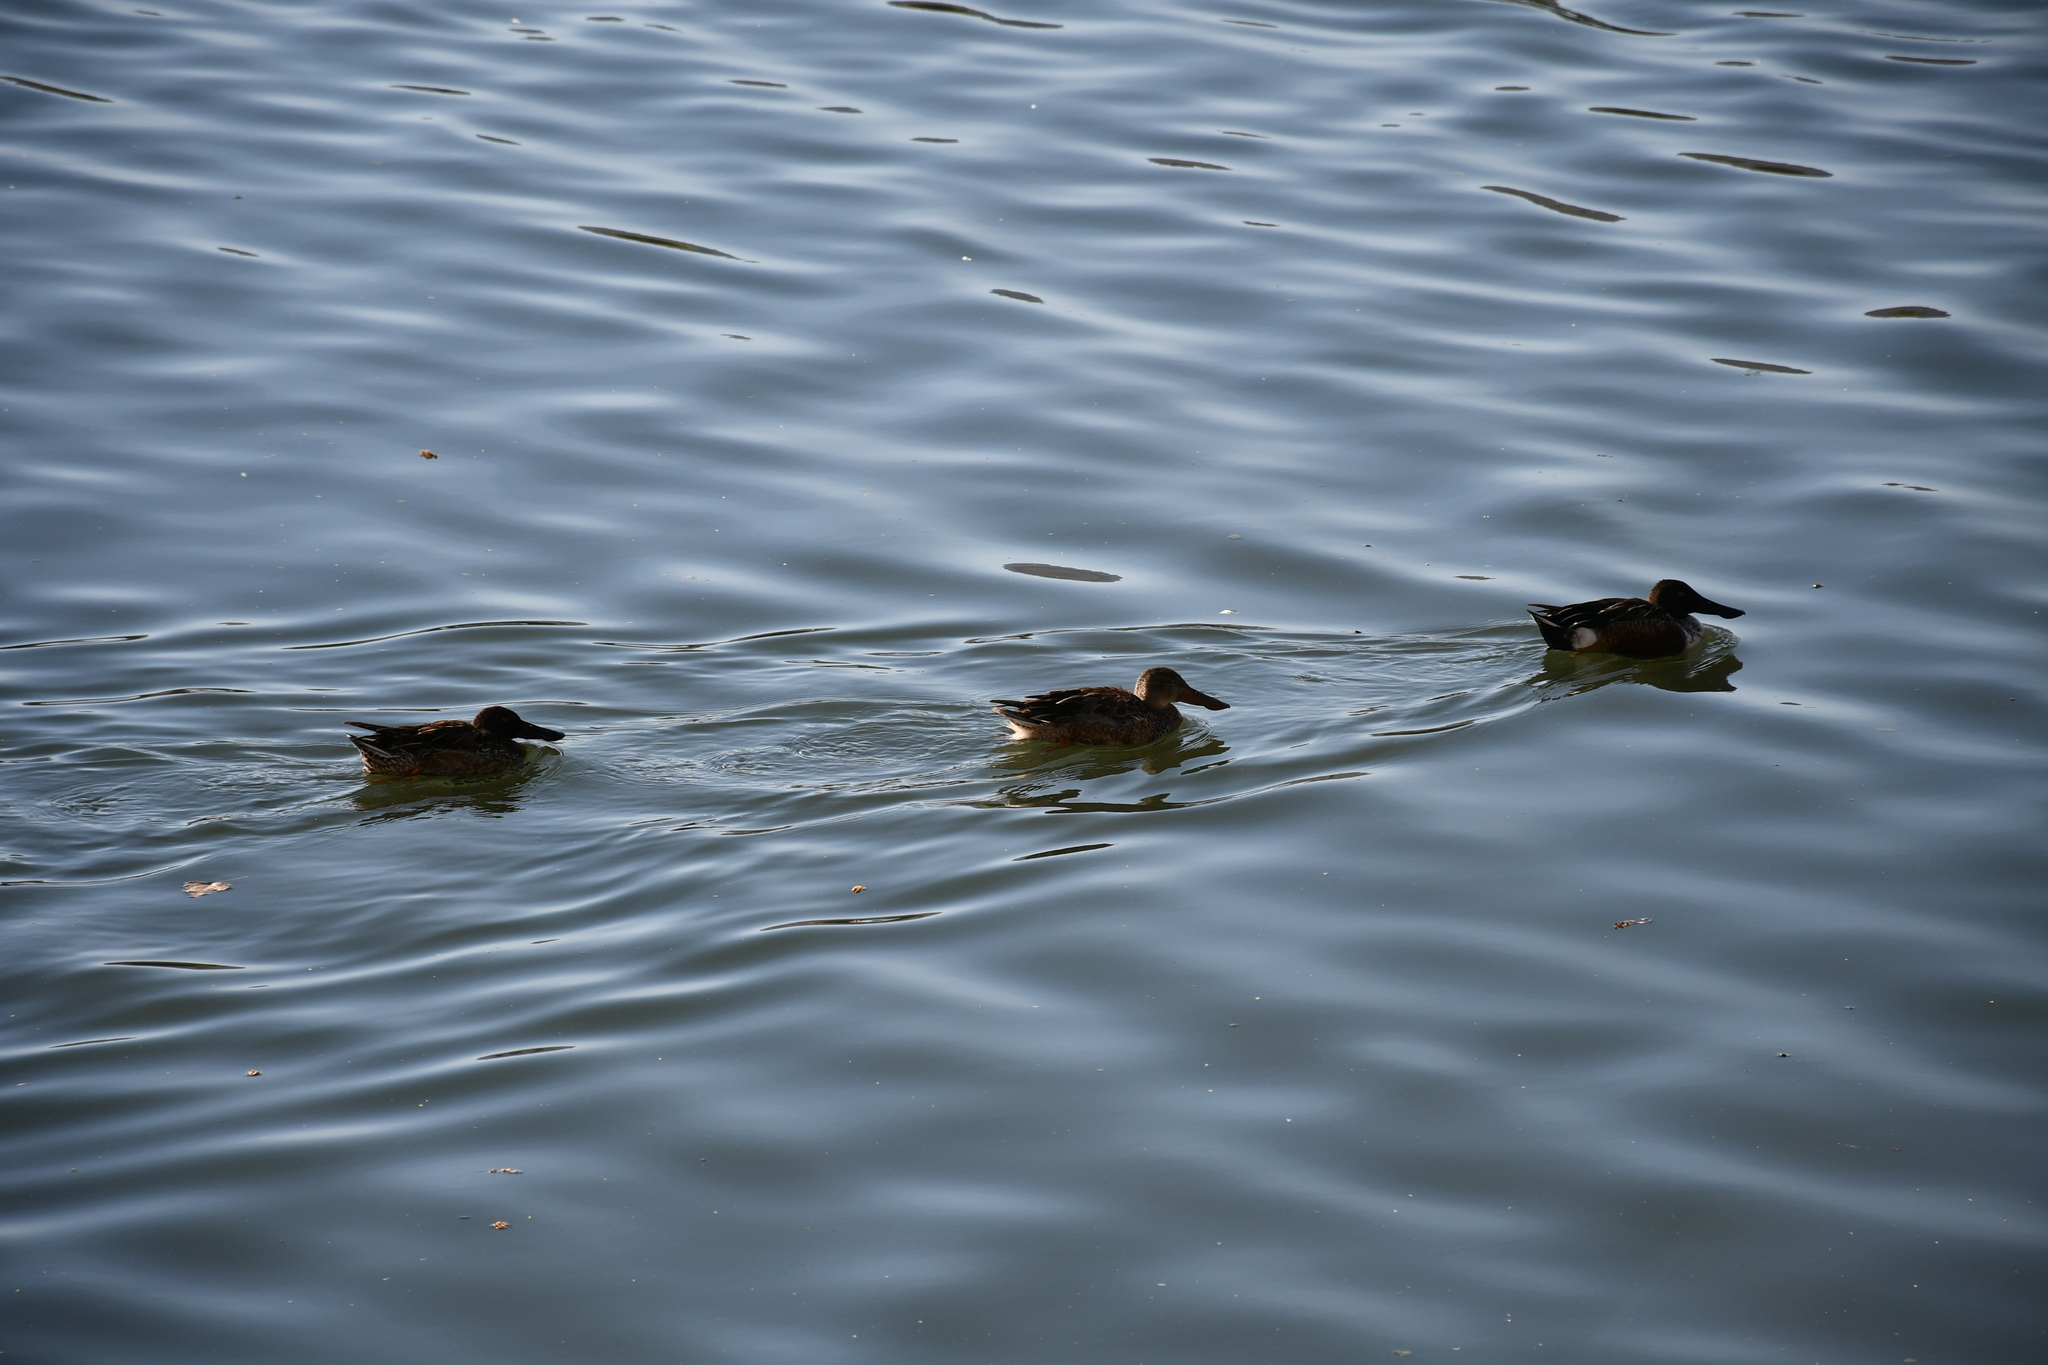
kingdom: Animalia
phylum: Chordata
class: Aves
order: Anseriformes
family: Anatidae
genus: Spatula
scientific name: Spatula clypeata
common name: Northern shoveler
